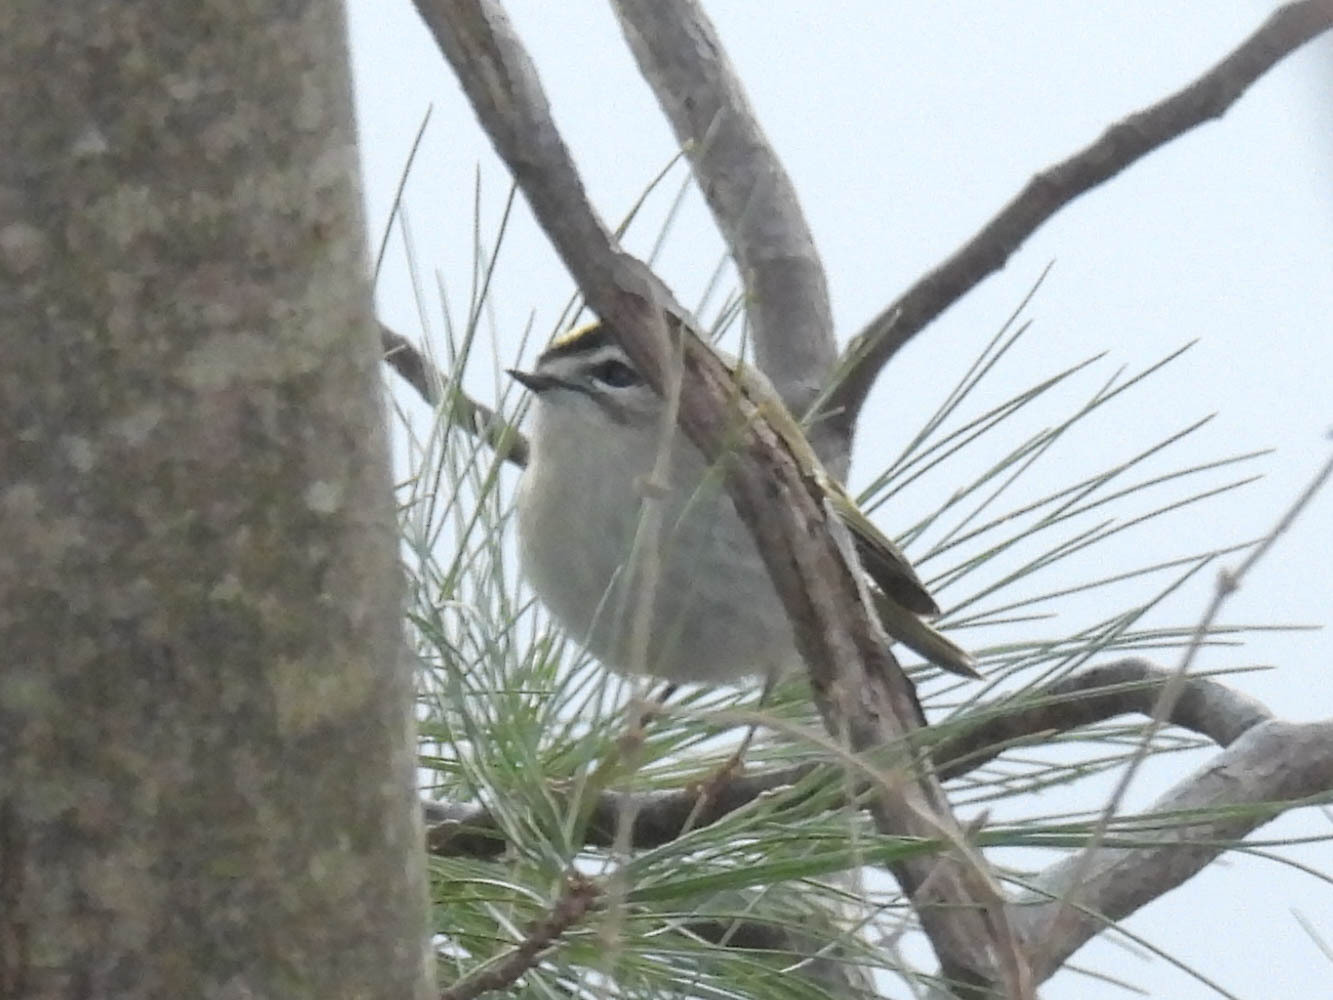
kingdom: Animalia
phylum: Chordata
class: Aves
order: Passeriformes
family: Regulidae
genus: Regulus
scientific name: Regulus satrapa
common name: Golden-crowned kinglet
